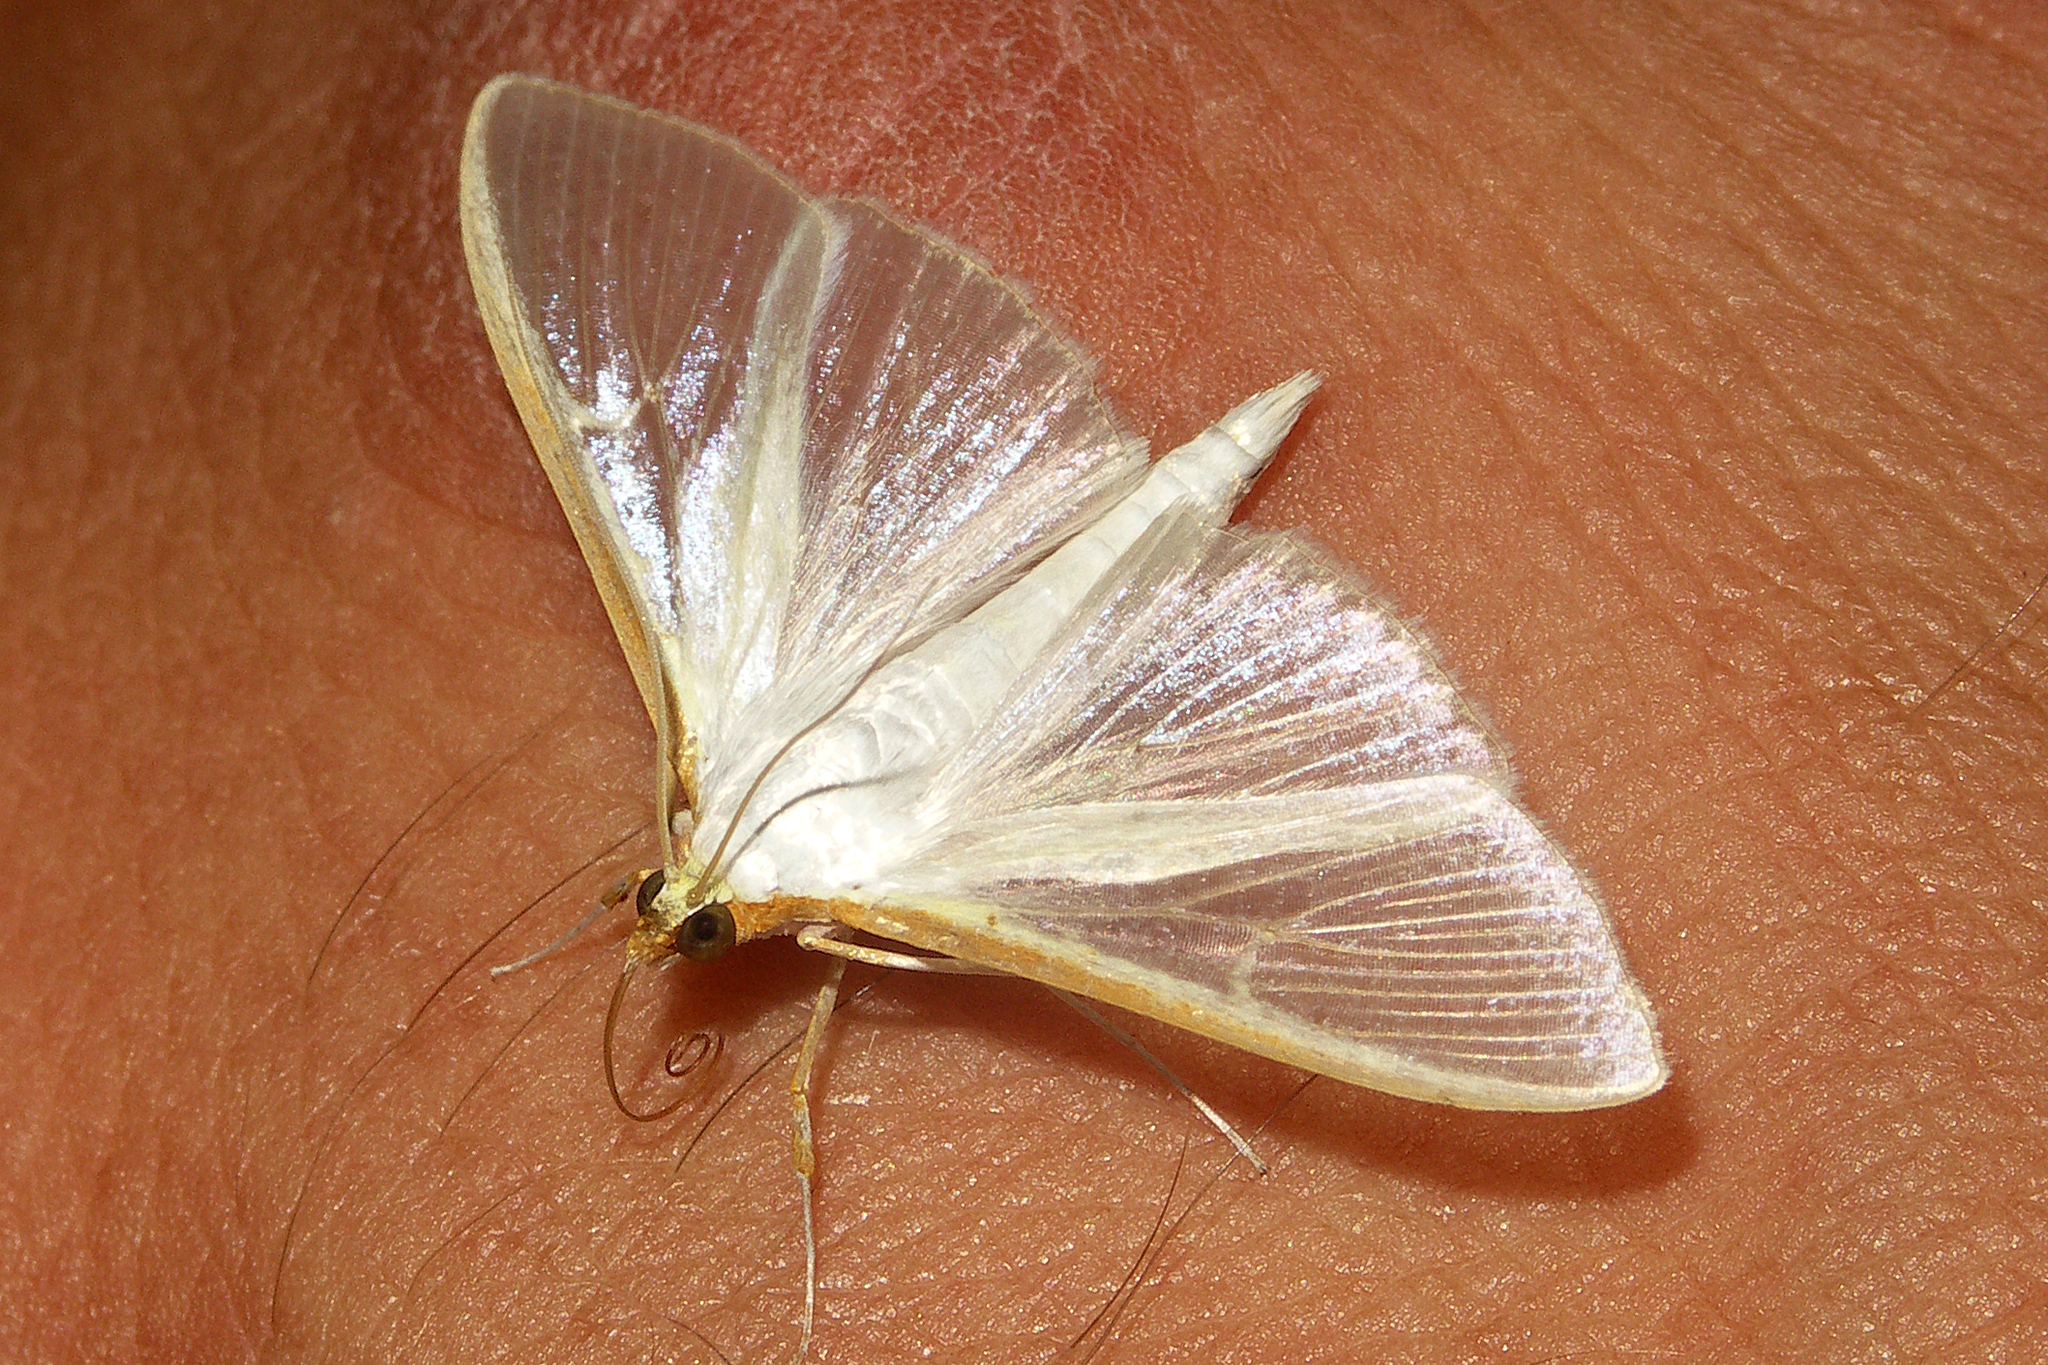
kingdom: Animalia
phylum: Arthropoda
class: Insecta
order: Lepidoptera
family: Crambidae
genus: Palpita
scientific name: Palpita vitrealis
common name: Olive-tree pearl
